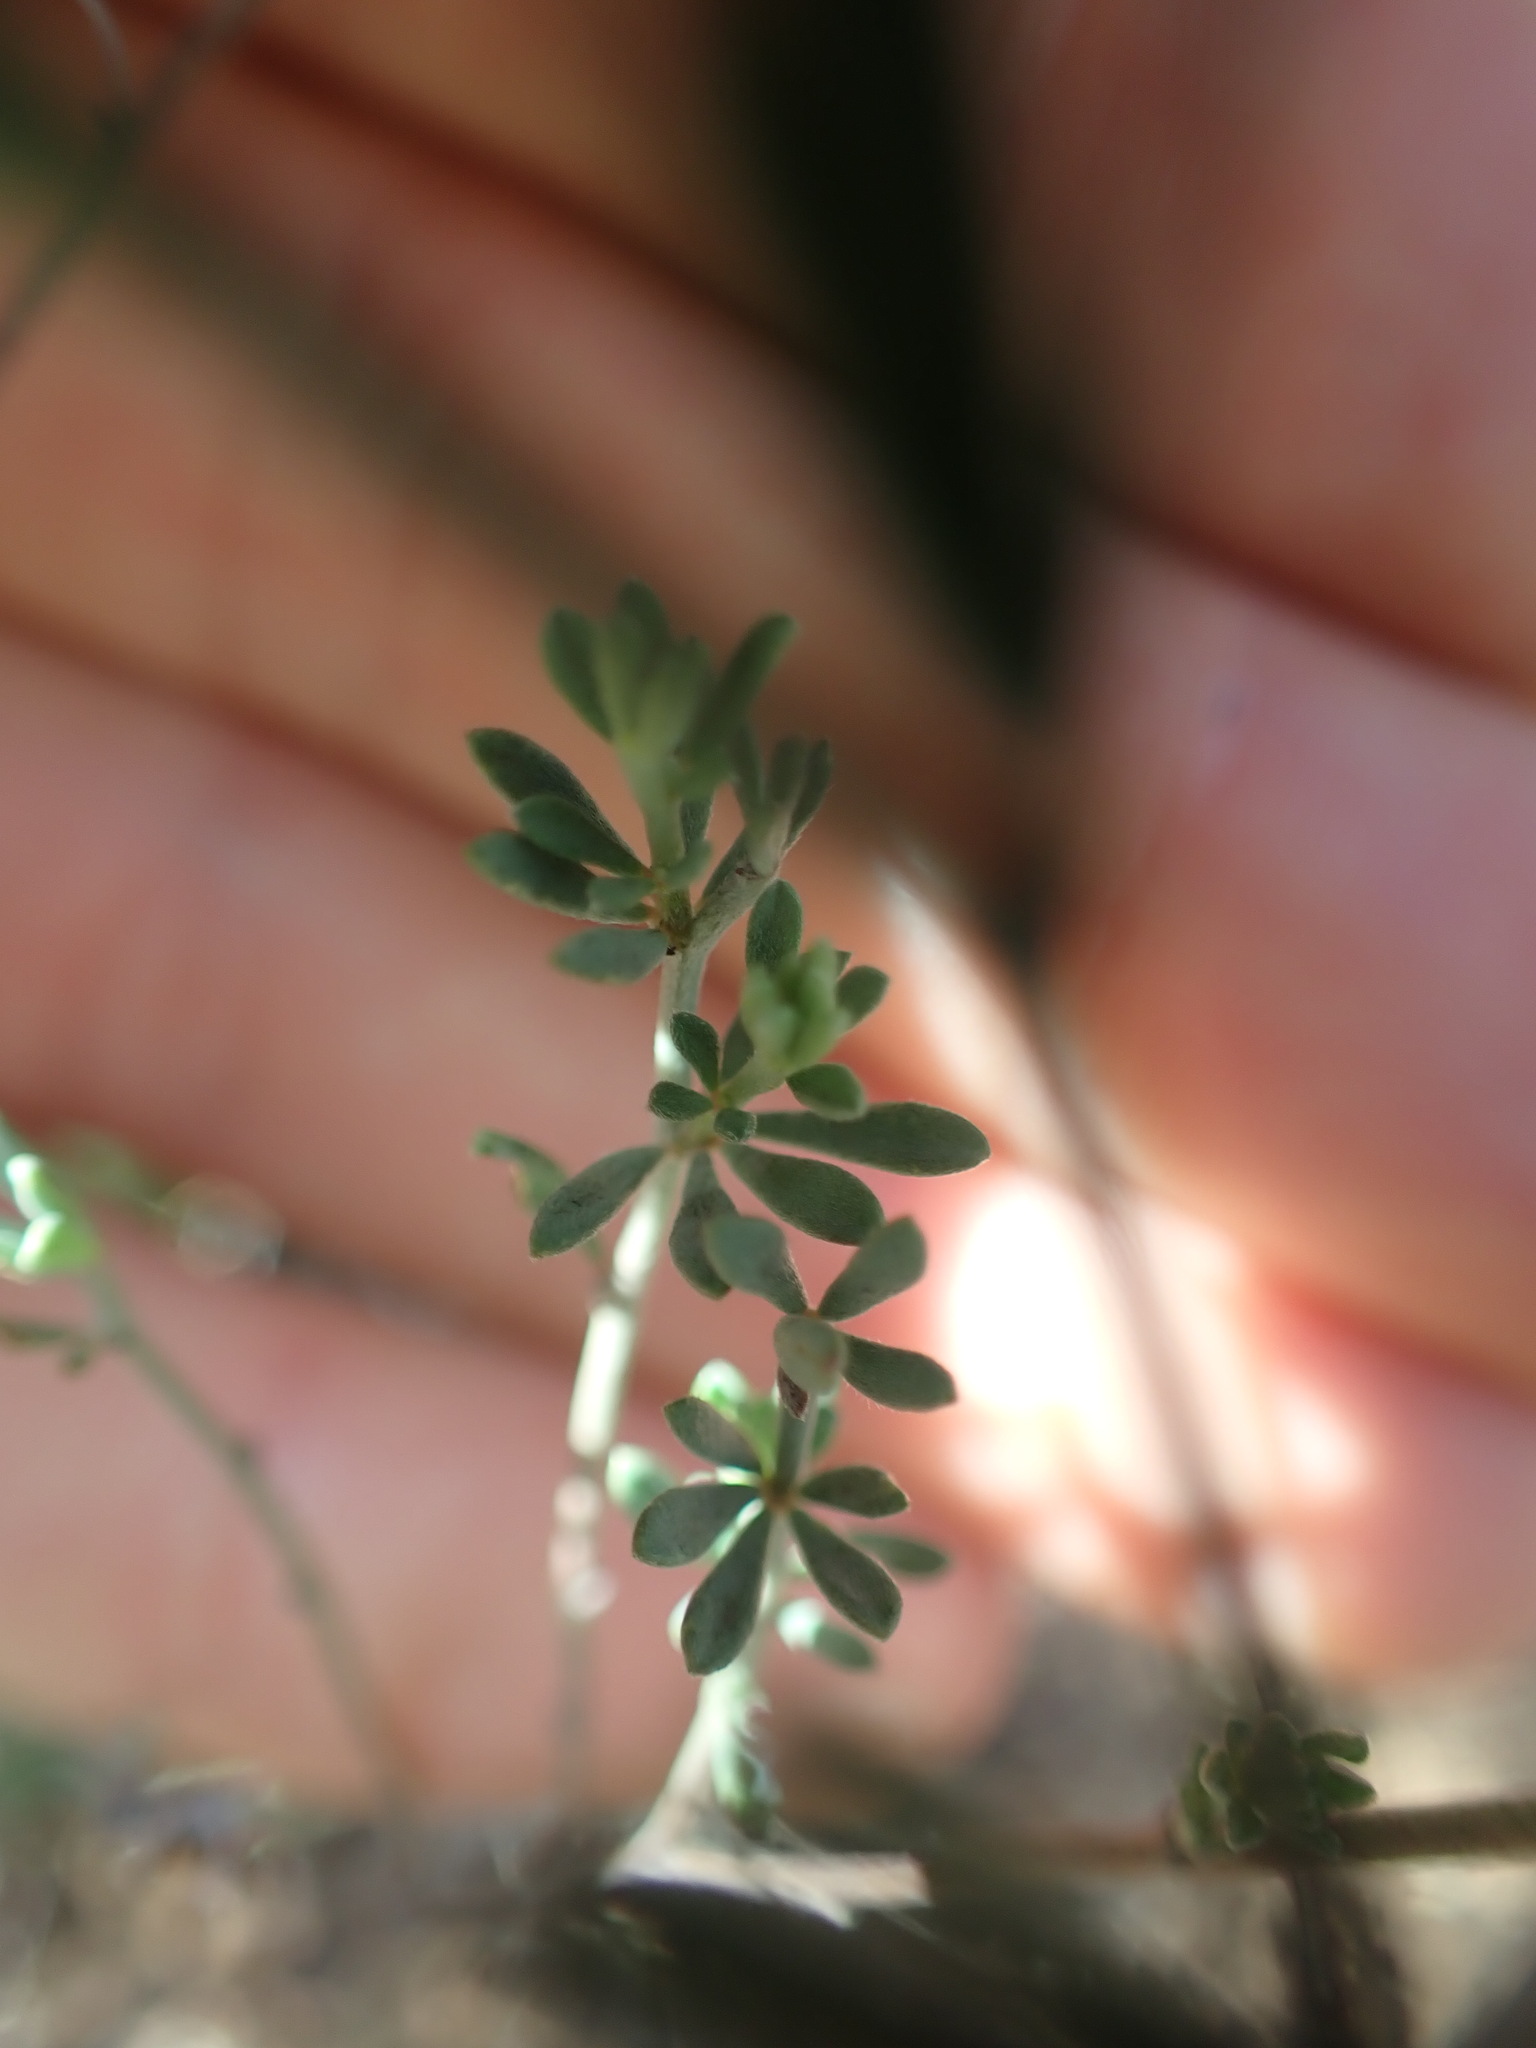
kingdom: Plantae
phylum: Tracheophyta
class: Magnoliopsida
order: Fabales
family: Fabaceae
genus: Lotus
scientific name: Lotus dorycnium
